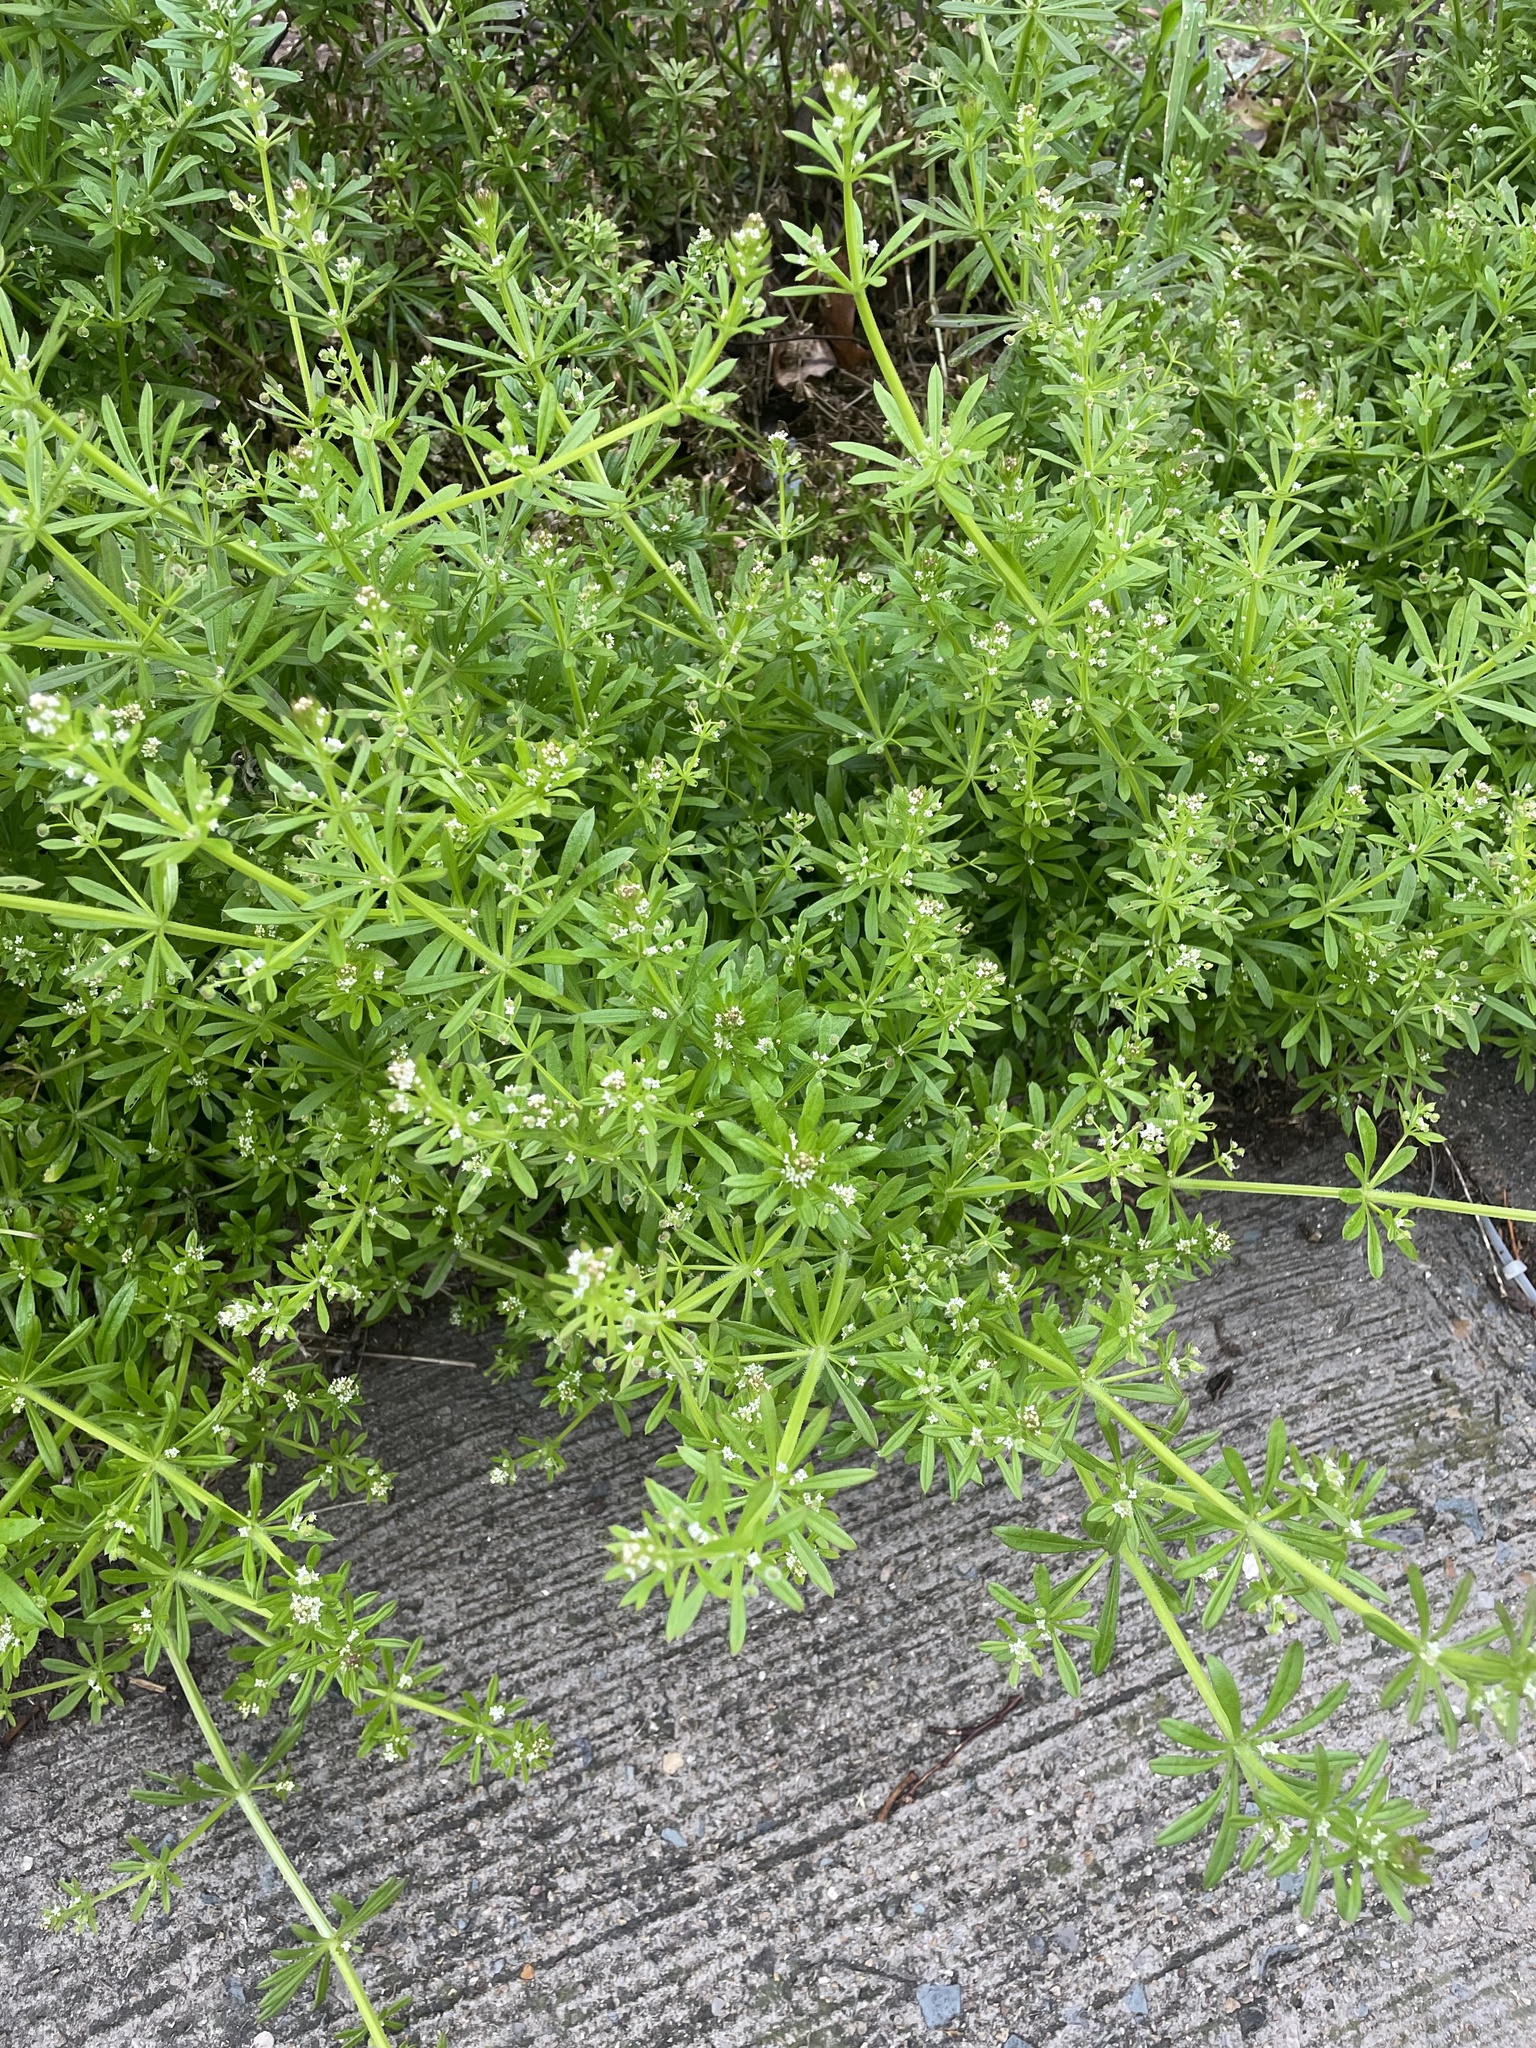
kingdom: Plantae
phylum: Tracheophyta
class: Magnoliopsida
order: Gentianales
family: Rubiaceae
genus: Galium
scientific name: Galium aparine
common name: Cleavers
